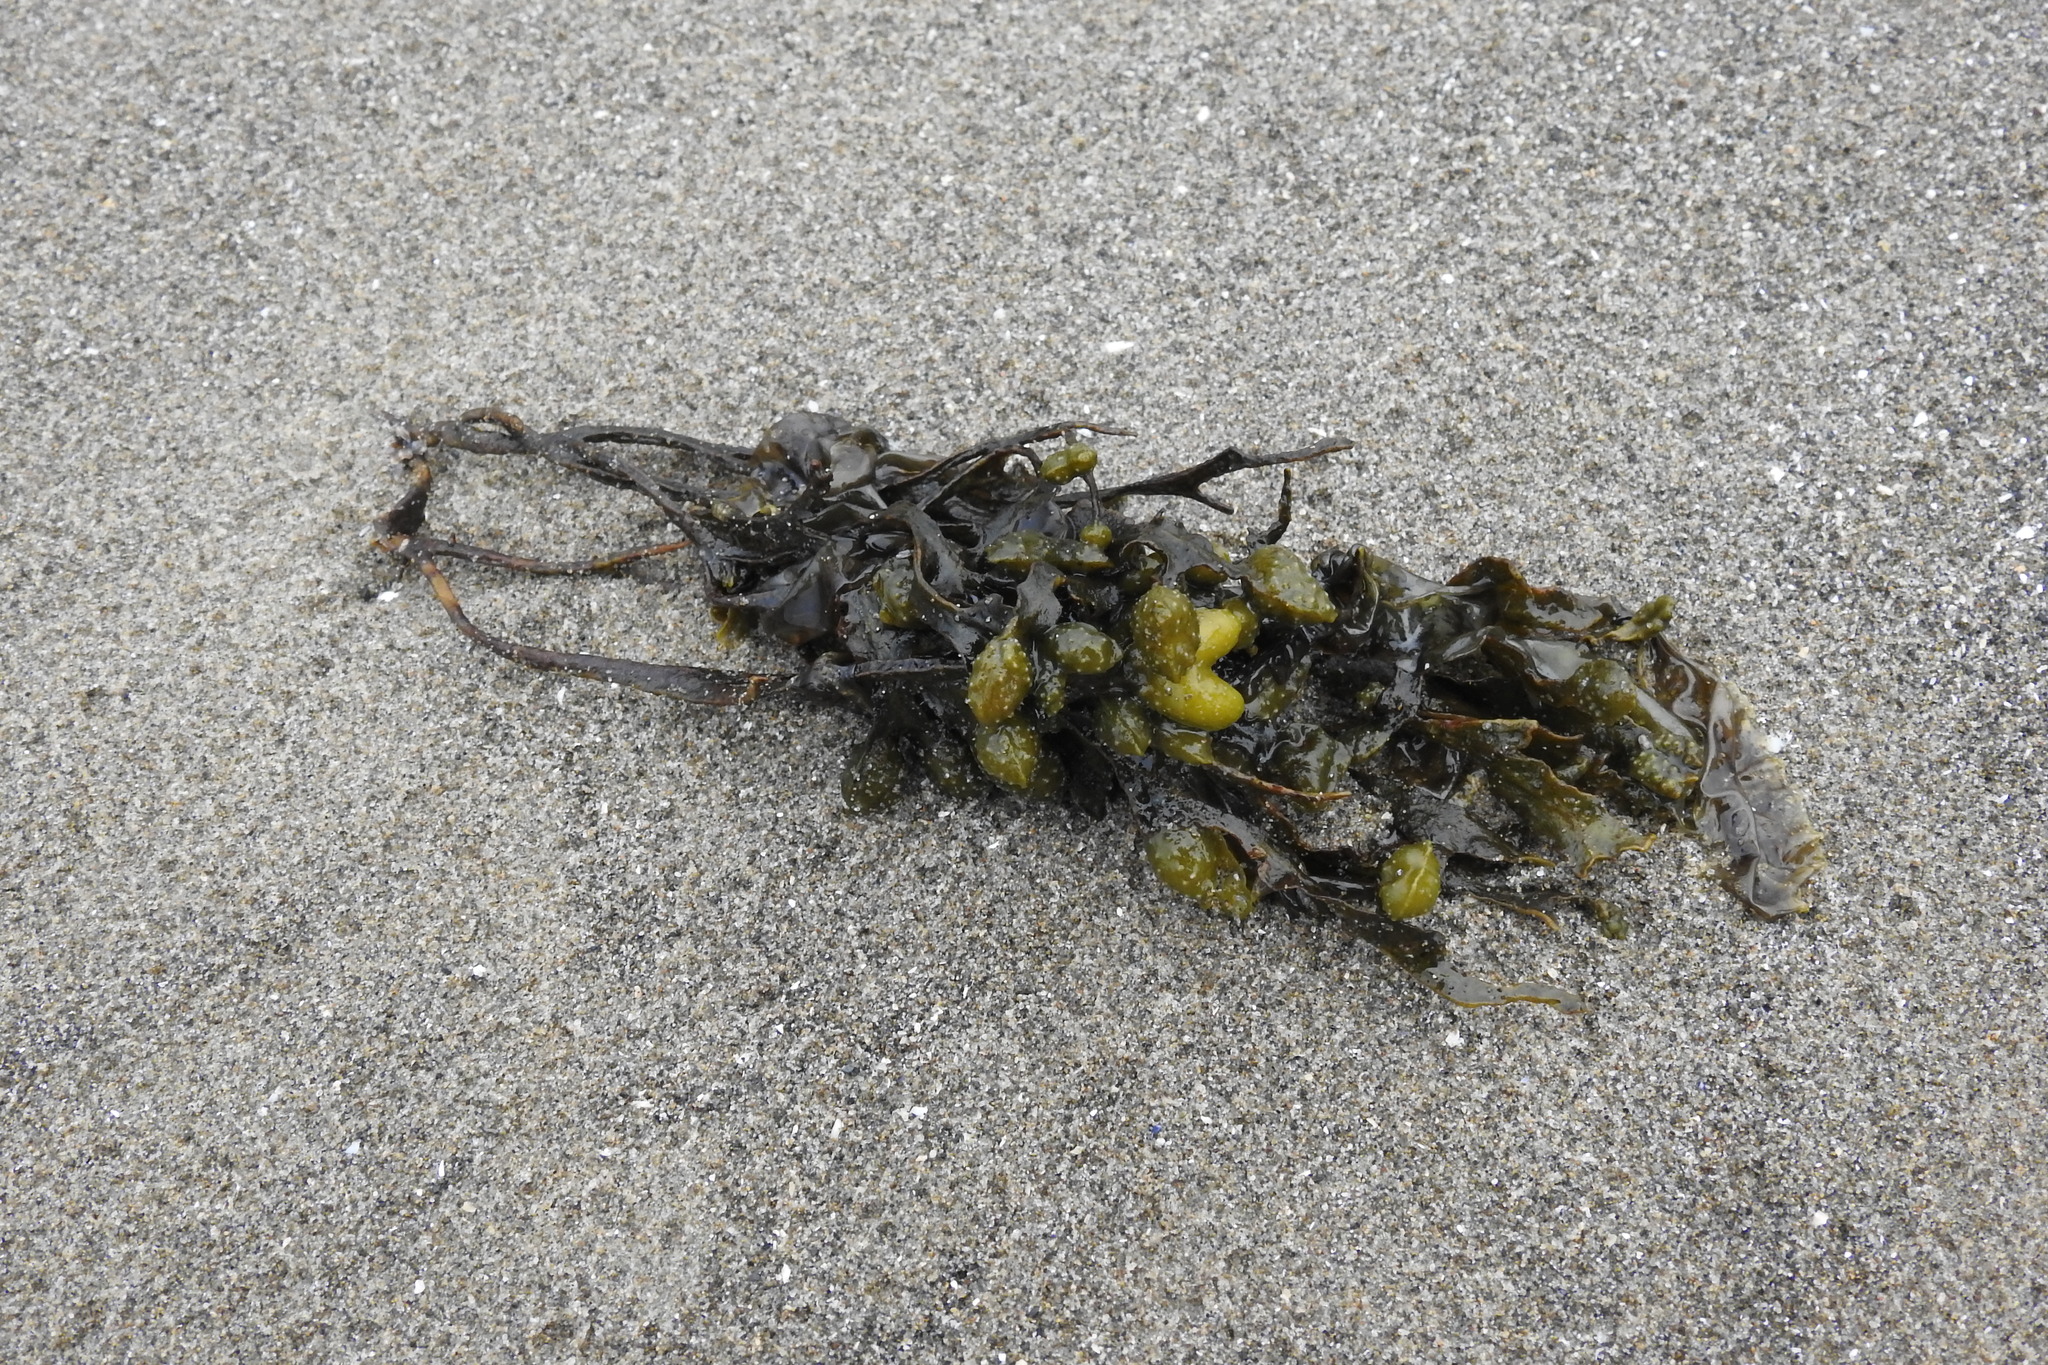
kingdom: Chromista
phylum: Ochrophyta
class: Phaeophyceae
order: Fucales
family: Fucaceae
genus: Fucus
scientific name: Fucus distichus
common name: Rockweed
